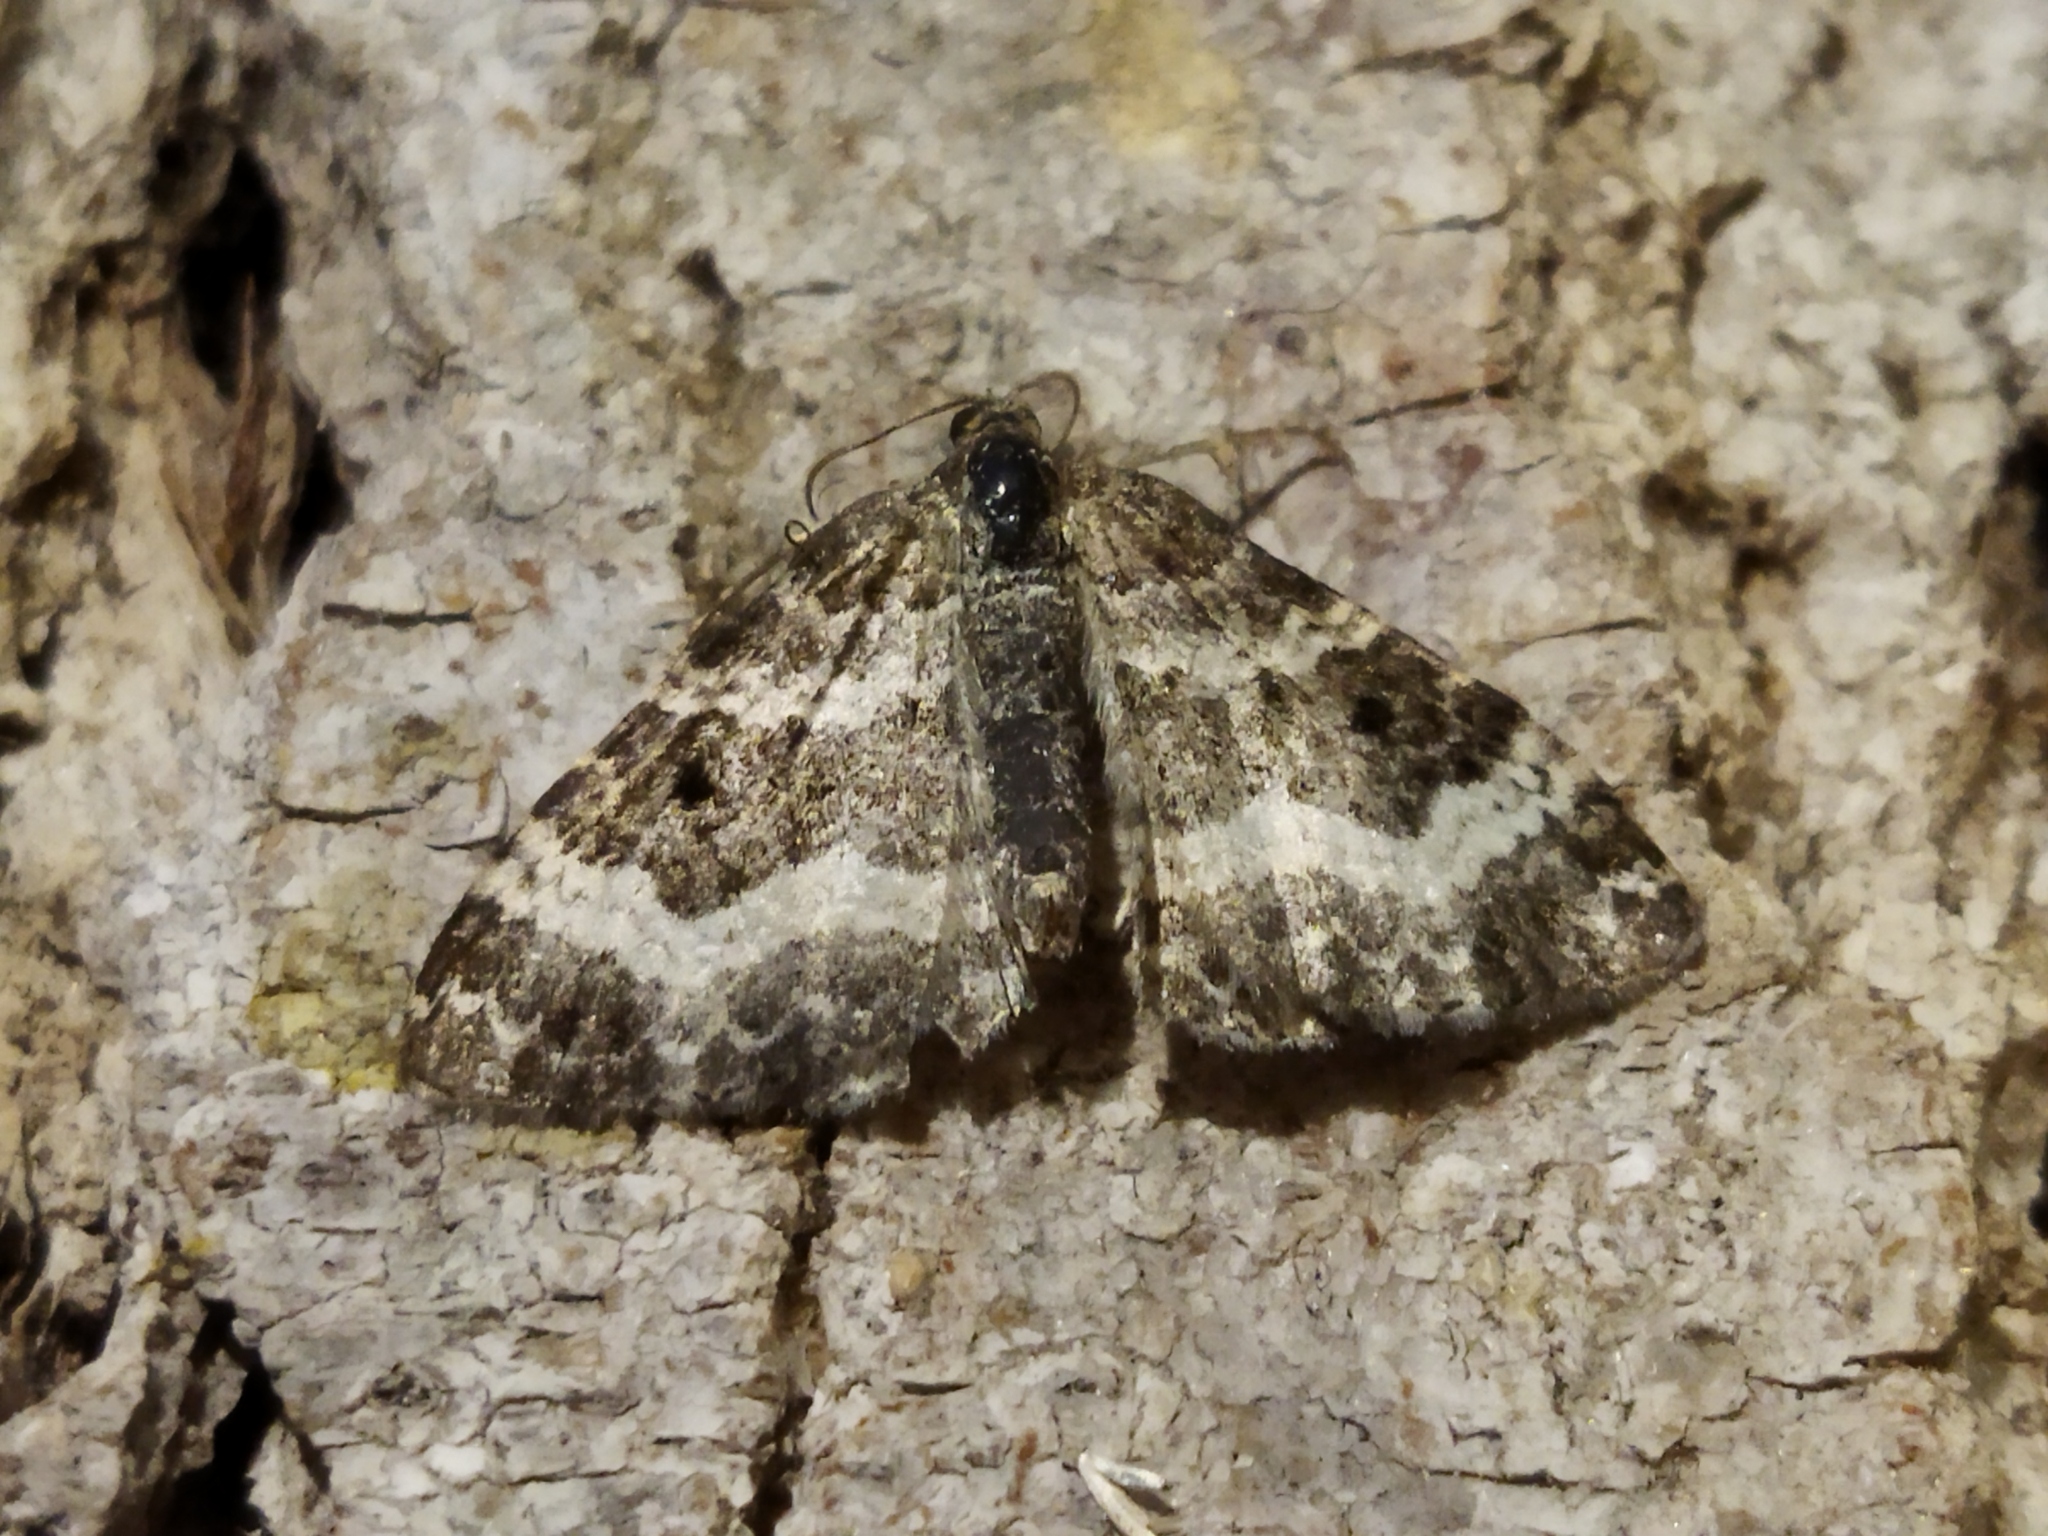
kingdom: Animalia
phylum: Arthropoda
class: Insecta
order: Lepidoptera
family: Geometridae
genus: Epirrhoe
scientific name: Epirrhoe alternata
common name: Common carpet
